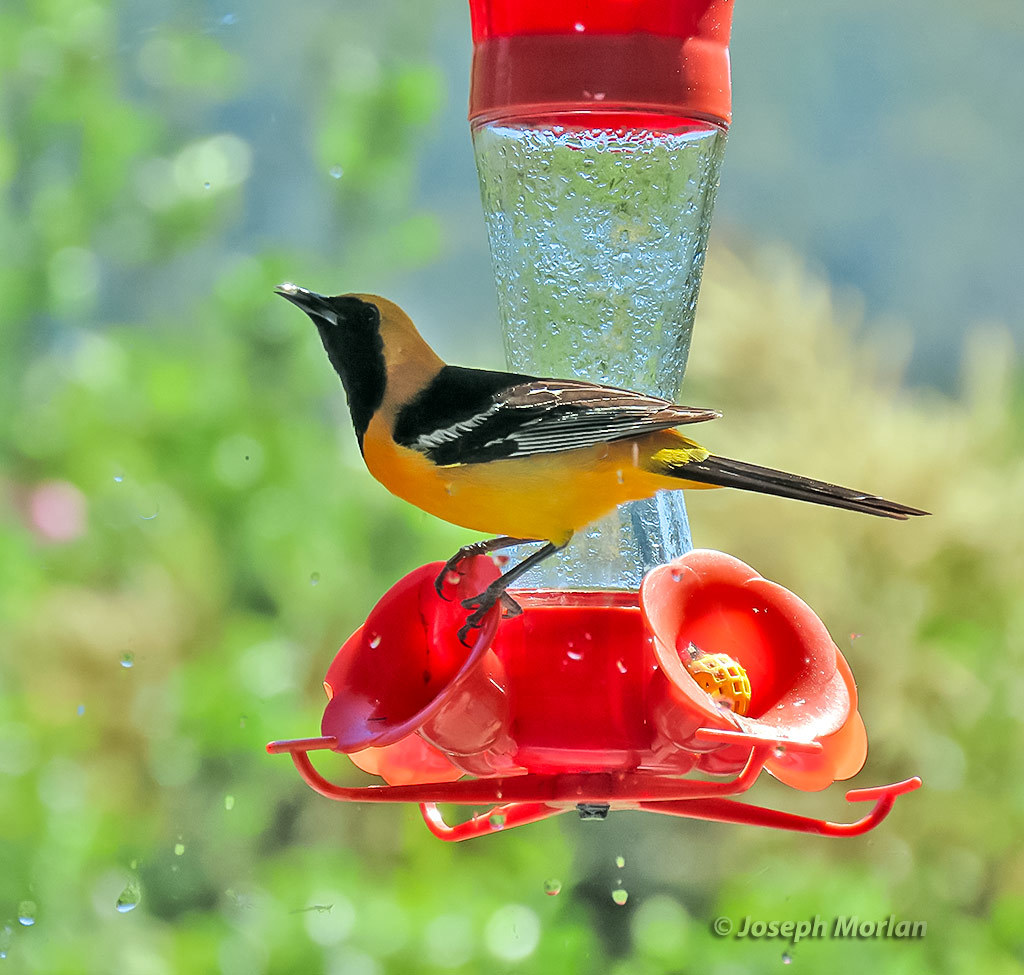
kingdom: Animalia
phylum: Chordata
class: Aves
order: Passeriformes
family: Icteridae
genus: Icterus
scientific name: Icterus cucullatus
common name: Hooded oriole
